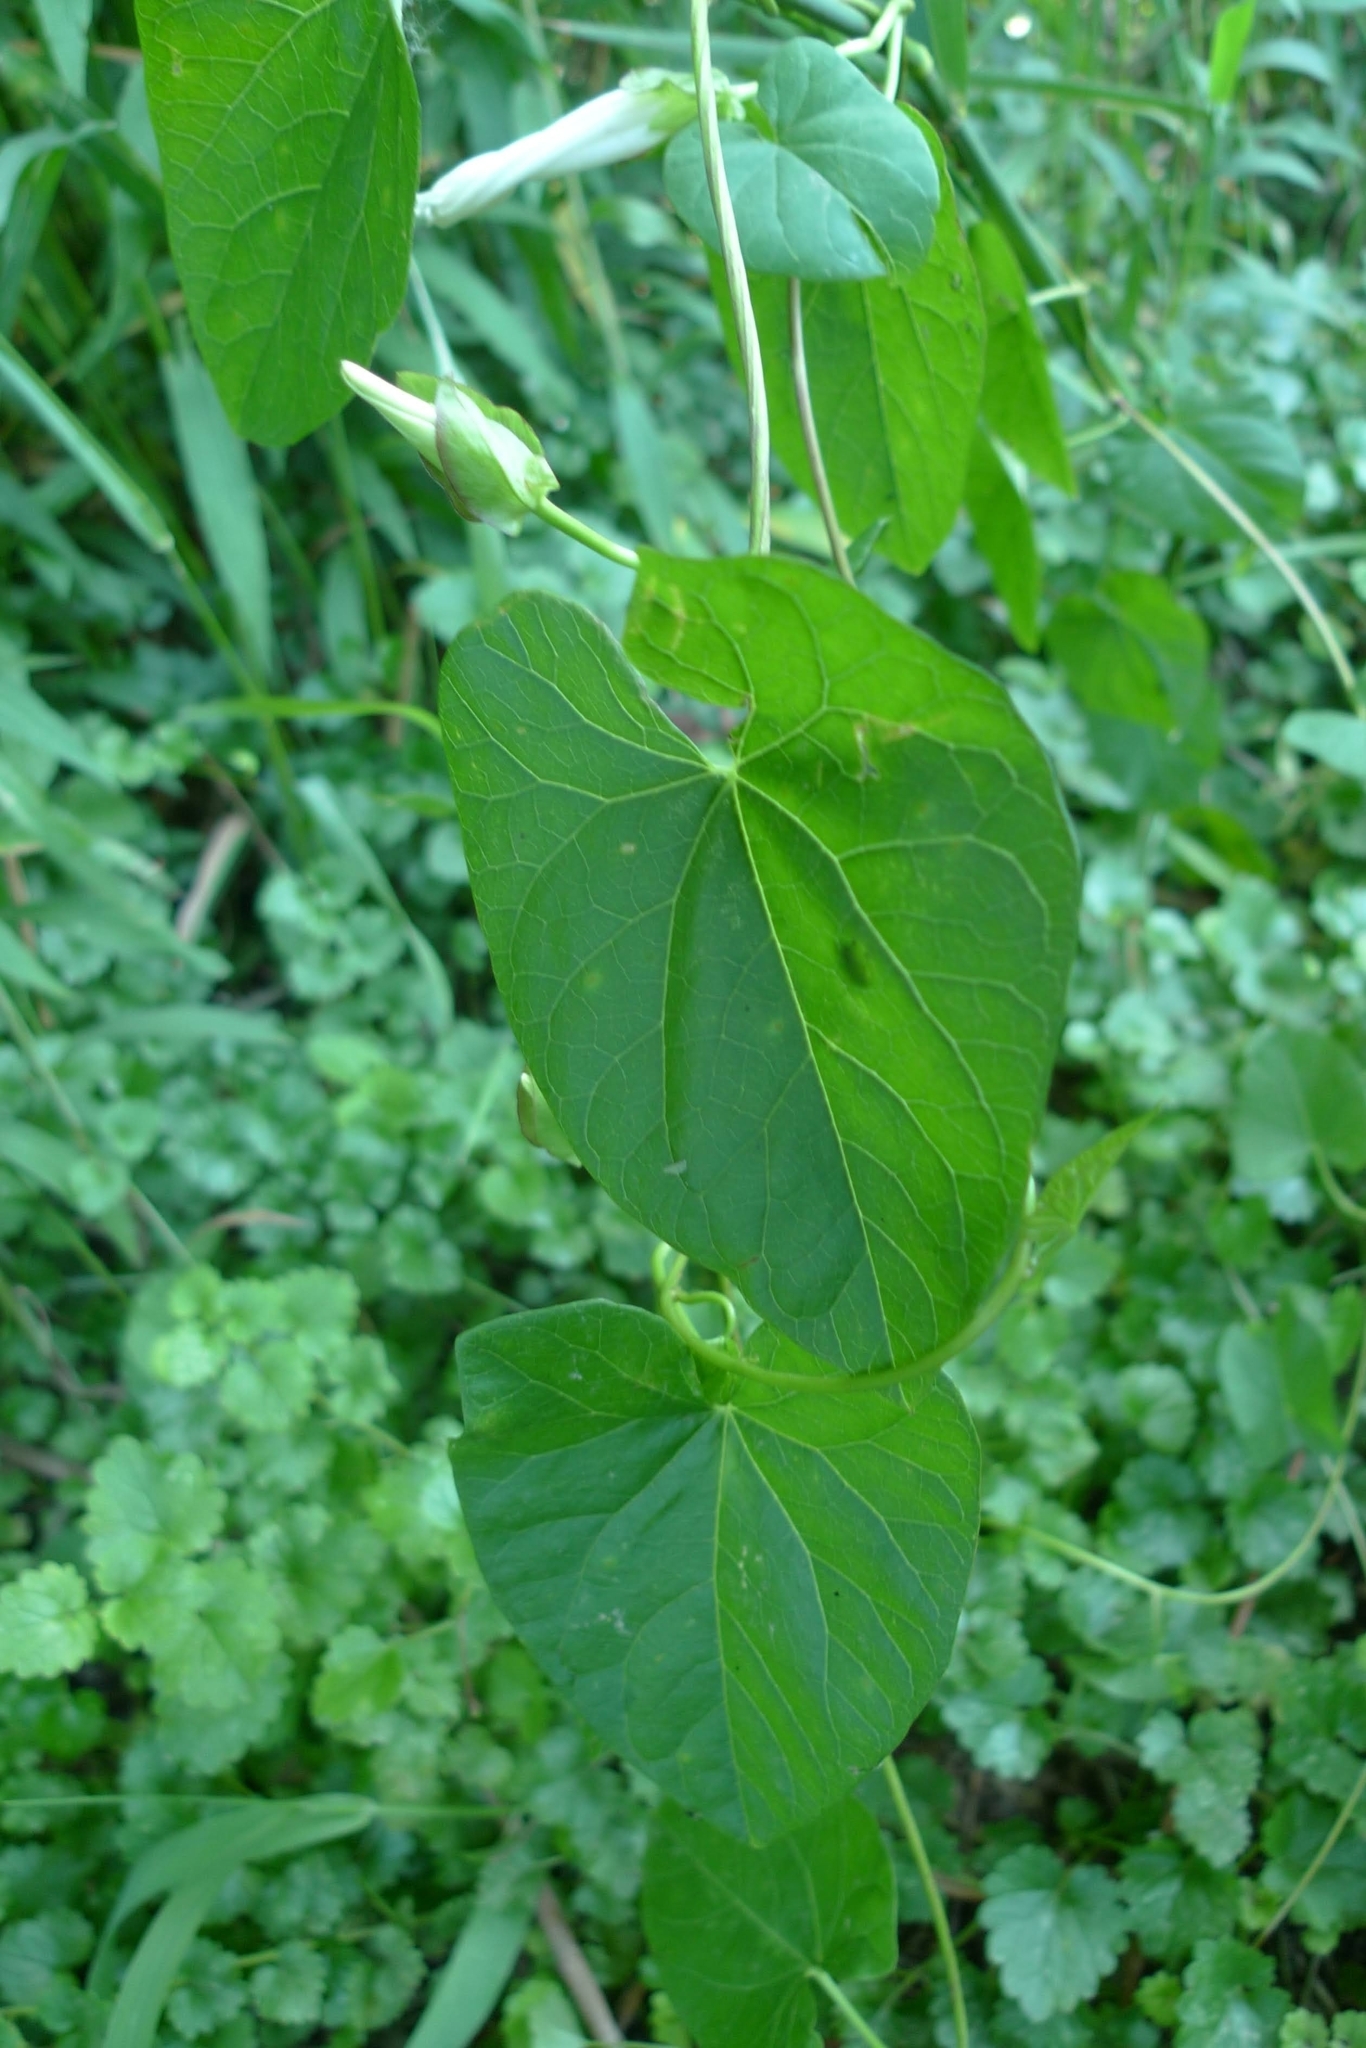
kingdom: Plantae
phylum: Tracheophyta
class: Magnoliopsida
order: Solanales
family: Convolvulaceae
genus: Calystegia
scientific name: Calystegia sepium
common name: Hedge bindweed
